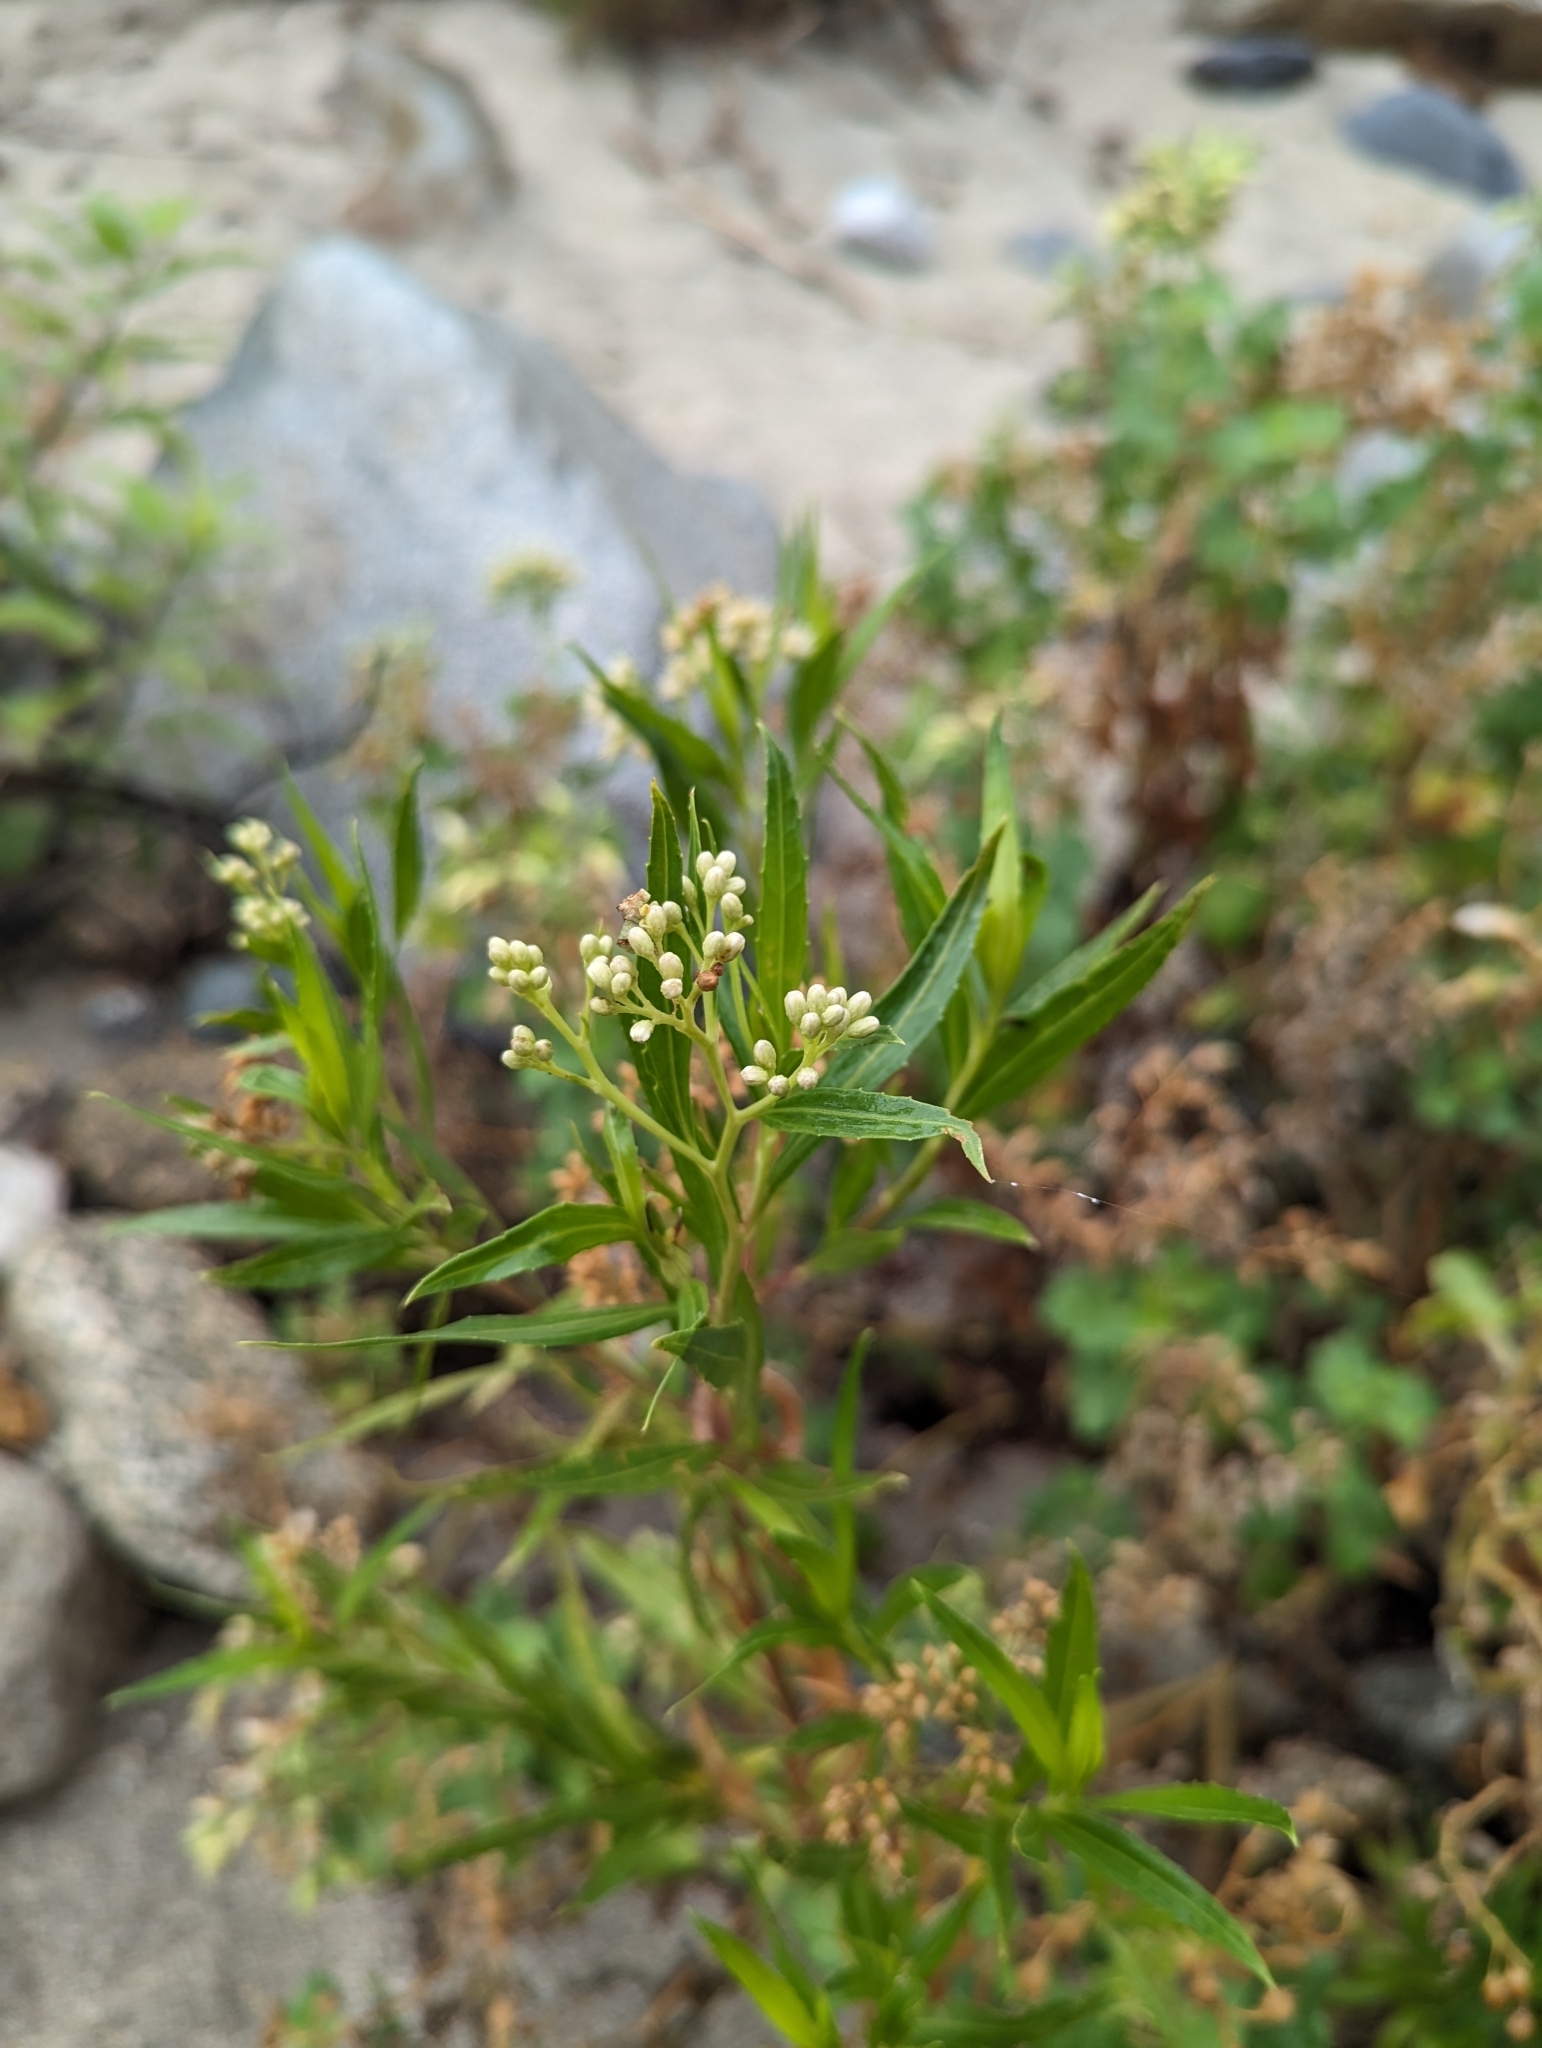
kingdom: Plantae
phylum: Tracheophyta
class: Magnoliopsida
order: Asterales
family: Asteraceae
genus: Baccharis
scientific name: Baccharis salicifolia
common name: Sticky baccharis
